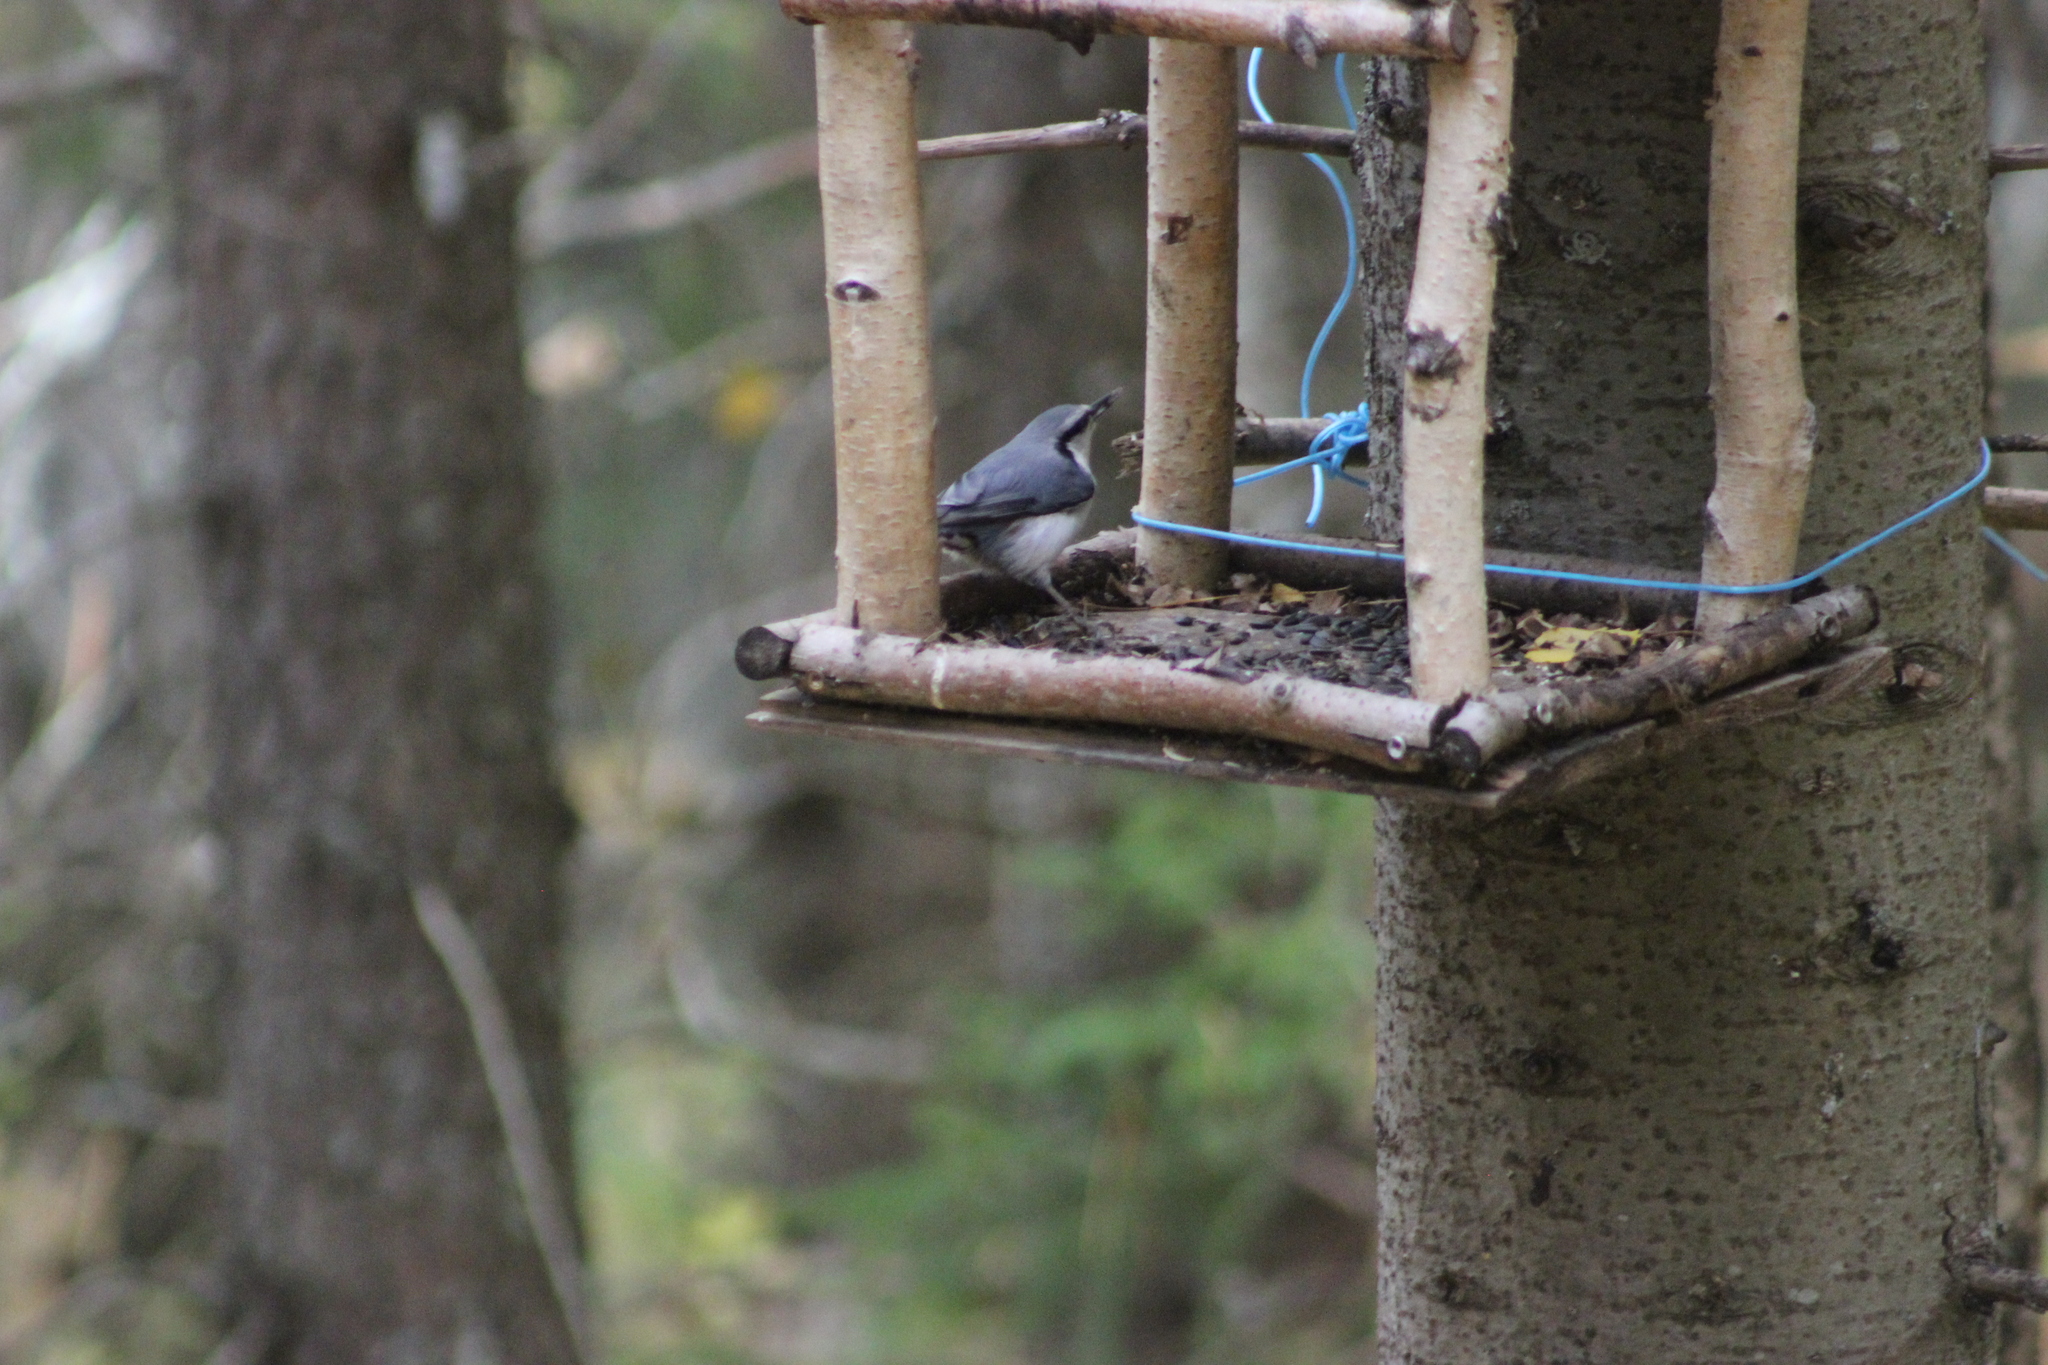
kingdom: Animalia
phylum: Chordata
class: Aves
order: Passeriformes
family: Sittidae
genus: Sitta
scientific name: Sitta europaea
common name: Eurasian nuthatch
